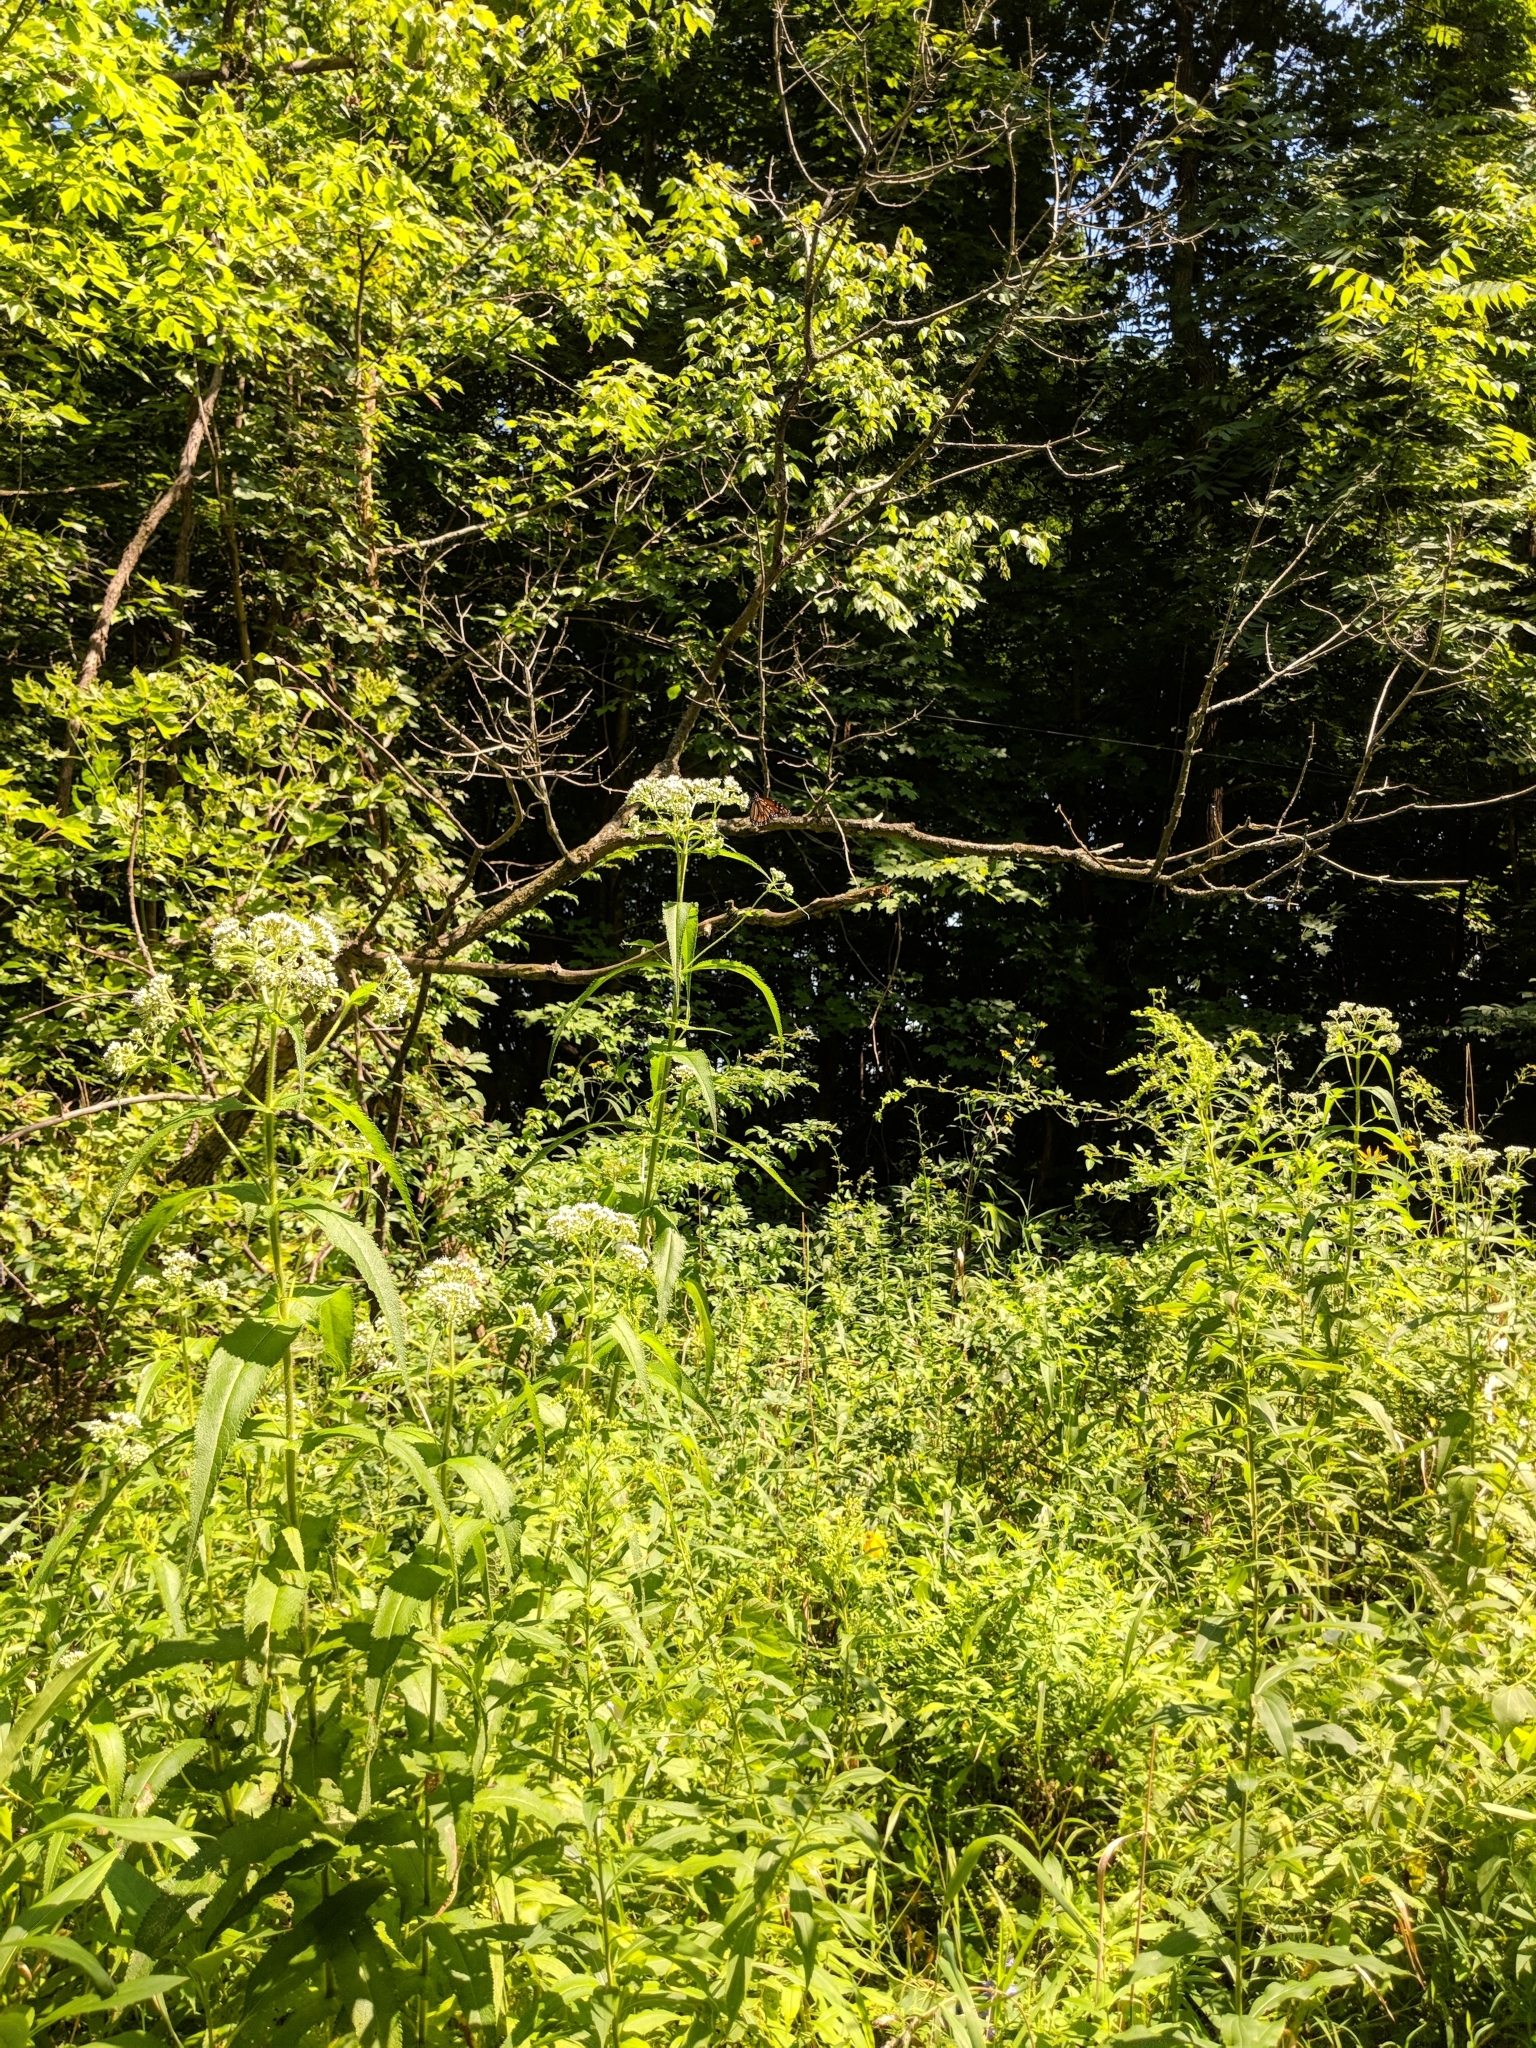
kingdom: Plantae
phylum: Tracheophyta
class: Magnoliopsida
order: Asterales
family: Asteraceae
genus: Eupatorium
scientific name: Eupatorium perfoliatum
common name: Boneset
